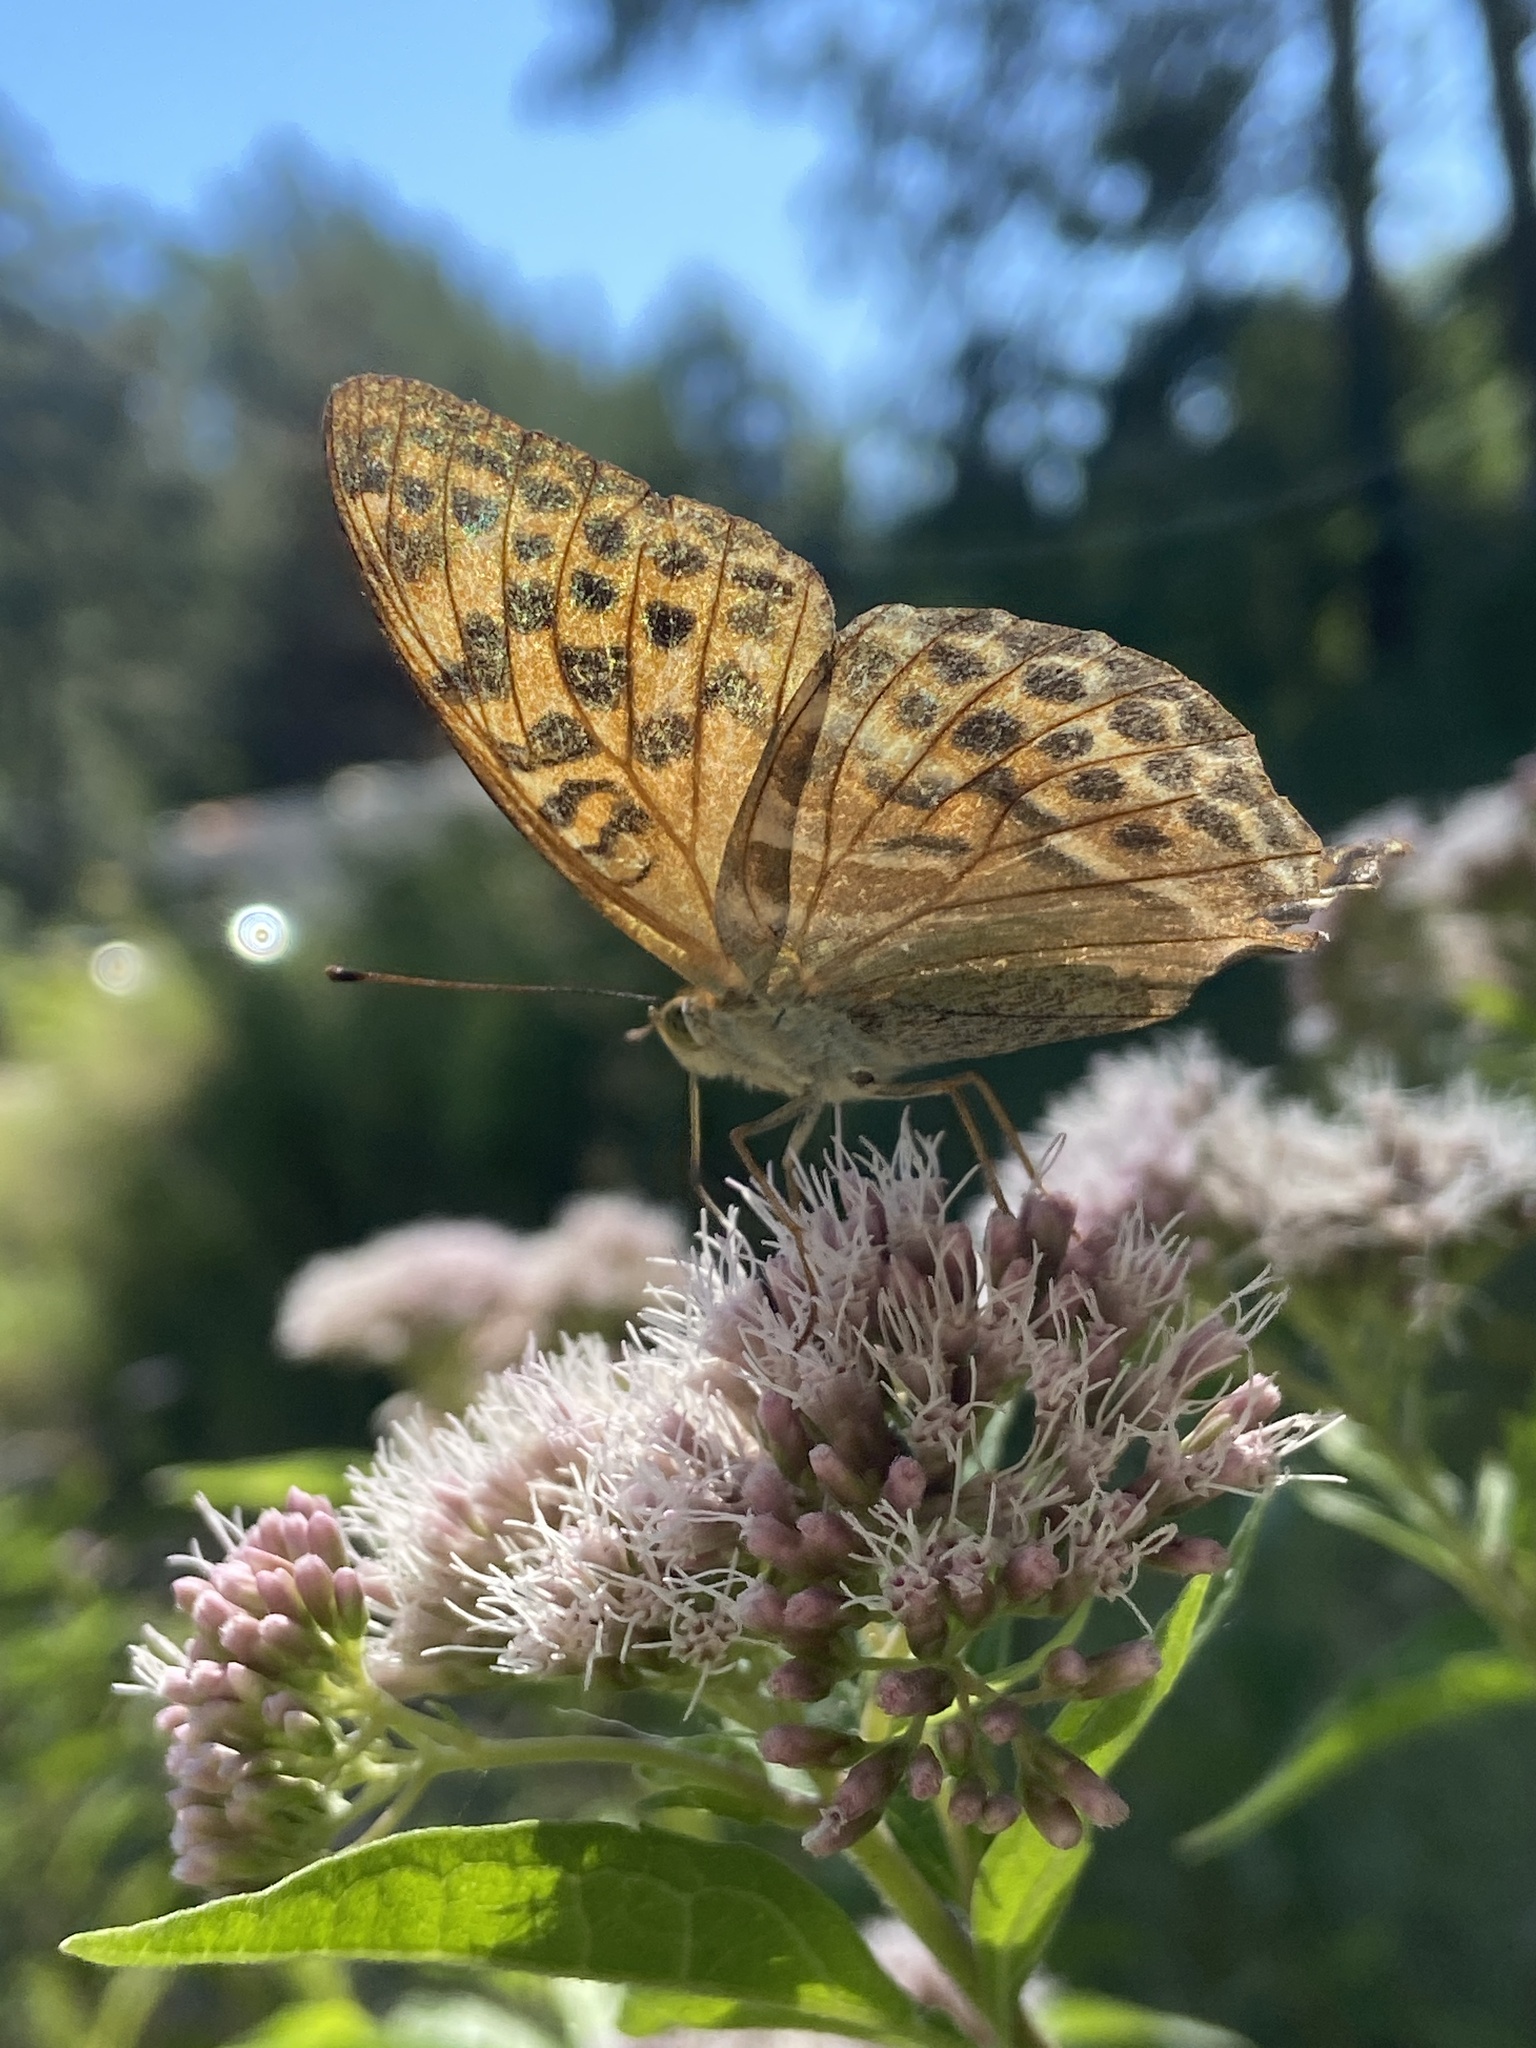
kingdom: Animalia
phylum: Arthropoda
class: Insecta
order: Lepidoptera
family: Nymphalidae
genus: Argynnis
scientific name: Argynnis paphia
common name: Silver-washed fritillary
